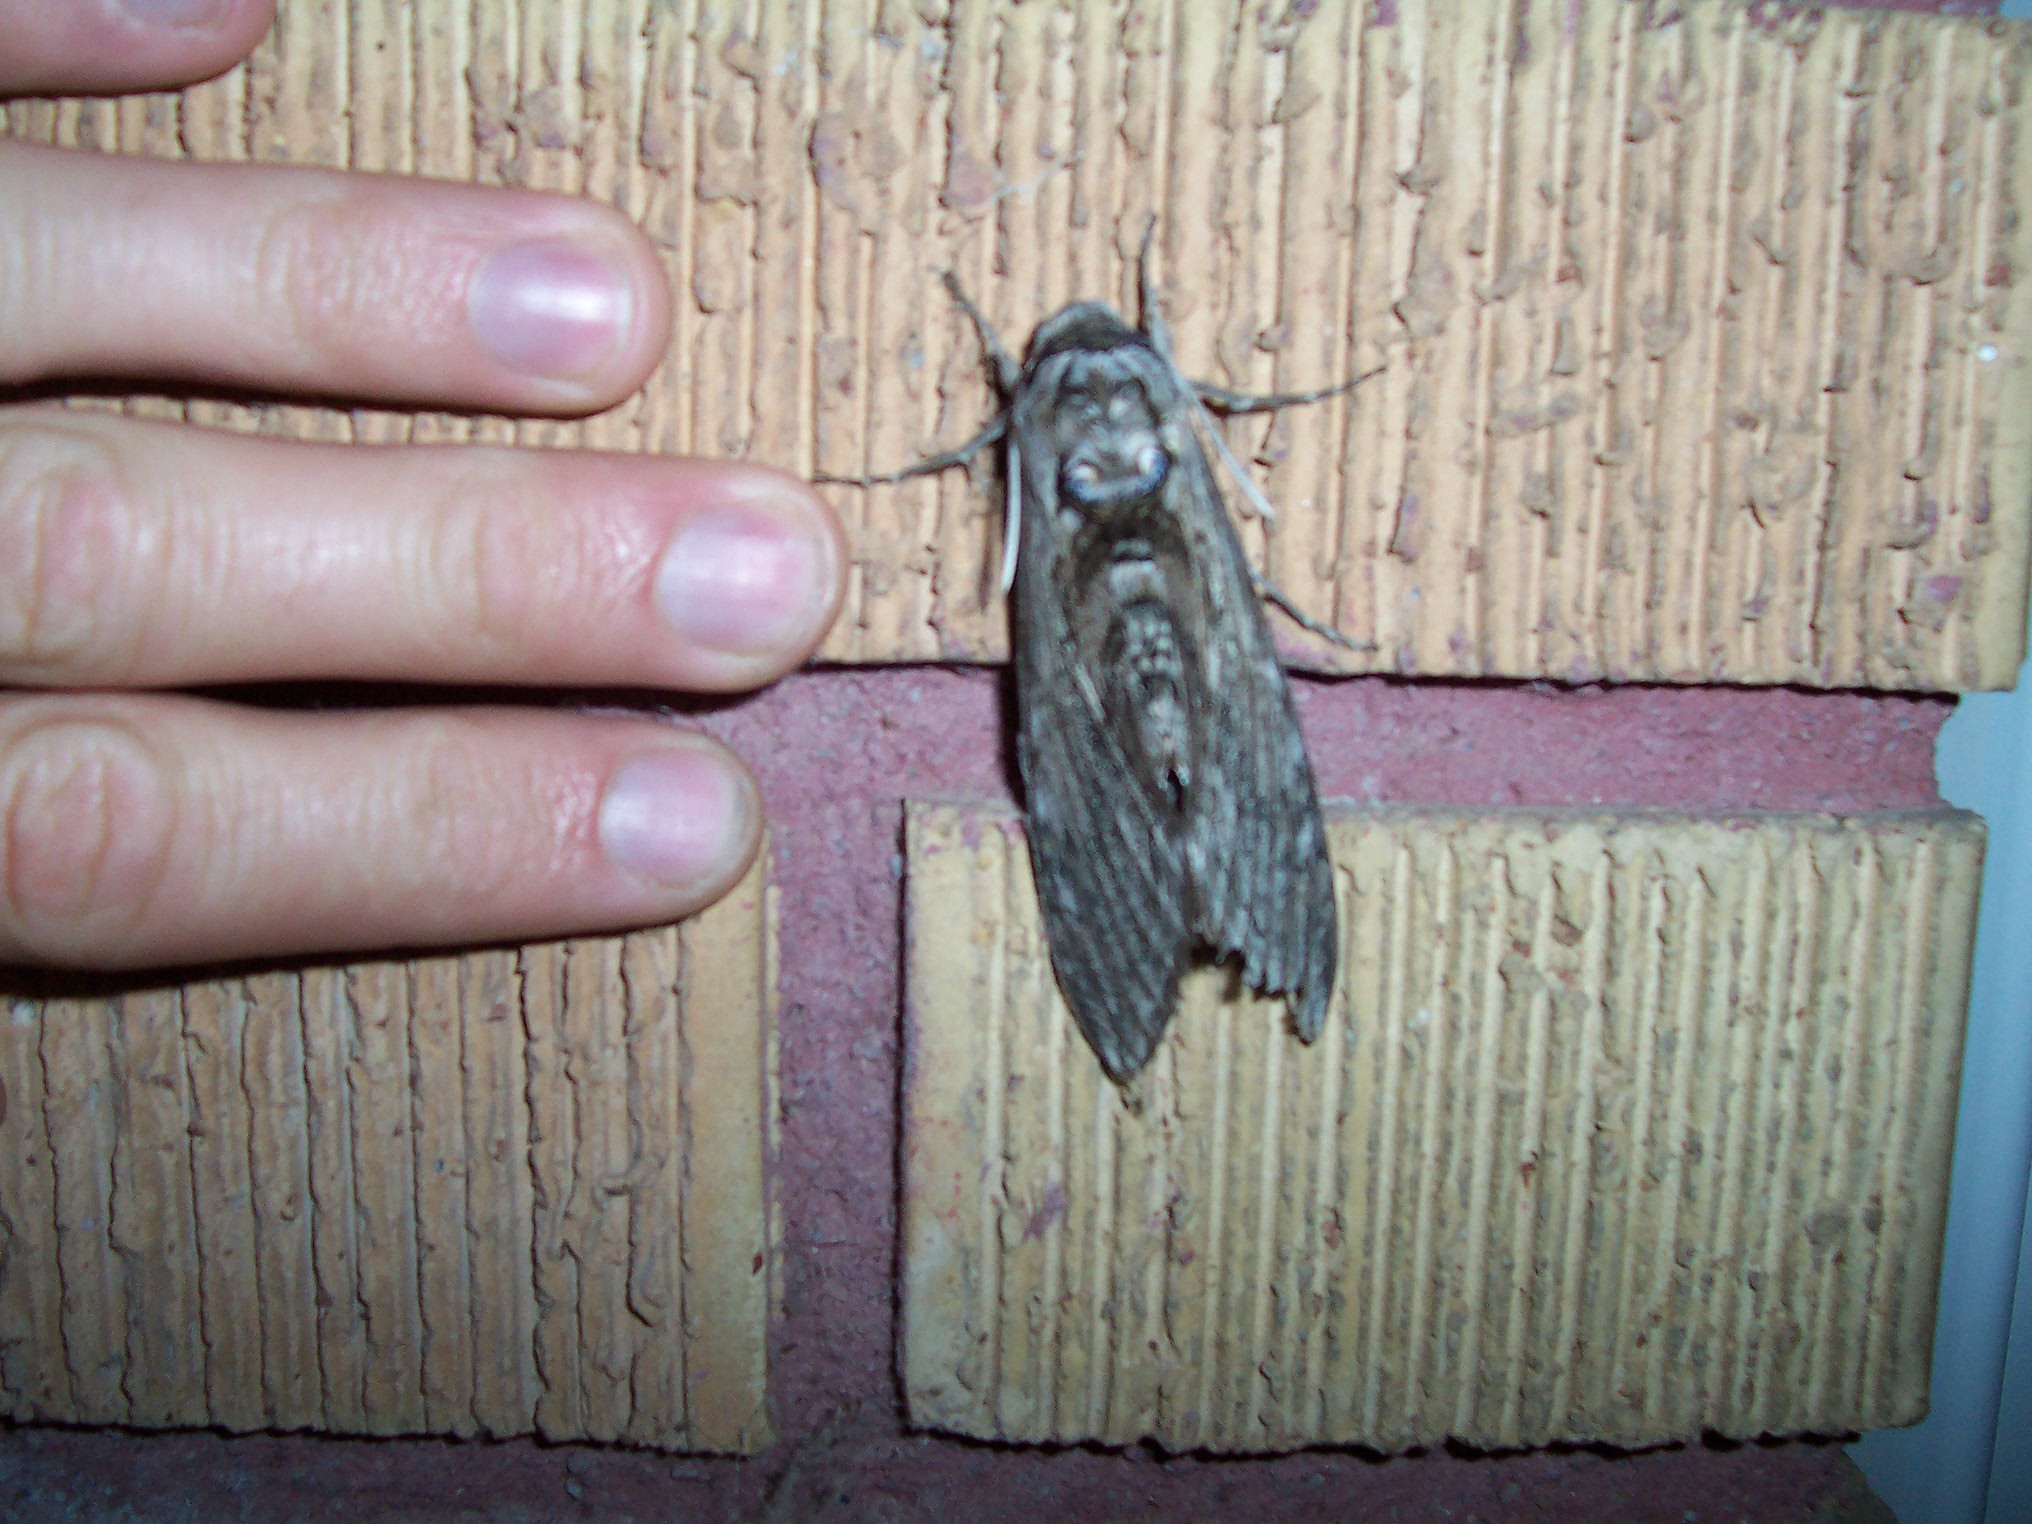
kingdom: Animalia
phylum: Arthropoda
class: Insecta
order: Lepidoptera
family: Sphingidae
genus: Manduca
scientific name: Manduca quinquemaculatus
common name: Five-spotted hawk-moth
